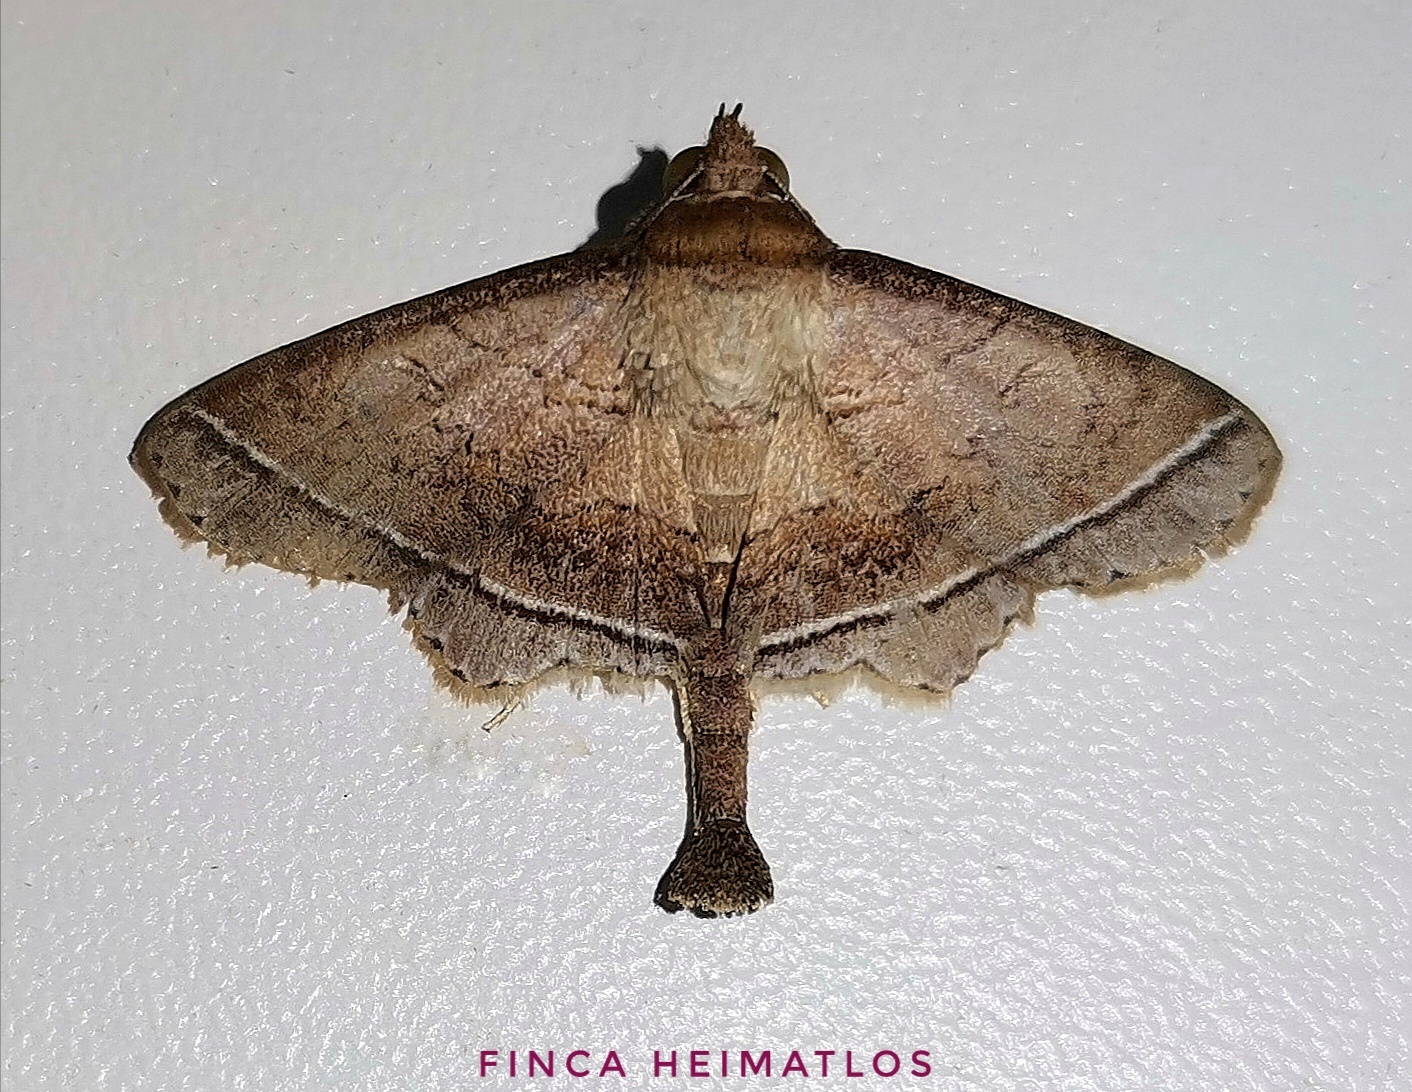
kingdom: Animalia
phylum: Arthropoda
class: Insecta
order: Lepidoptera
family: Erebidae
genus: Manbuta
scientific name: Manbuta ocresia
